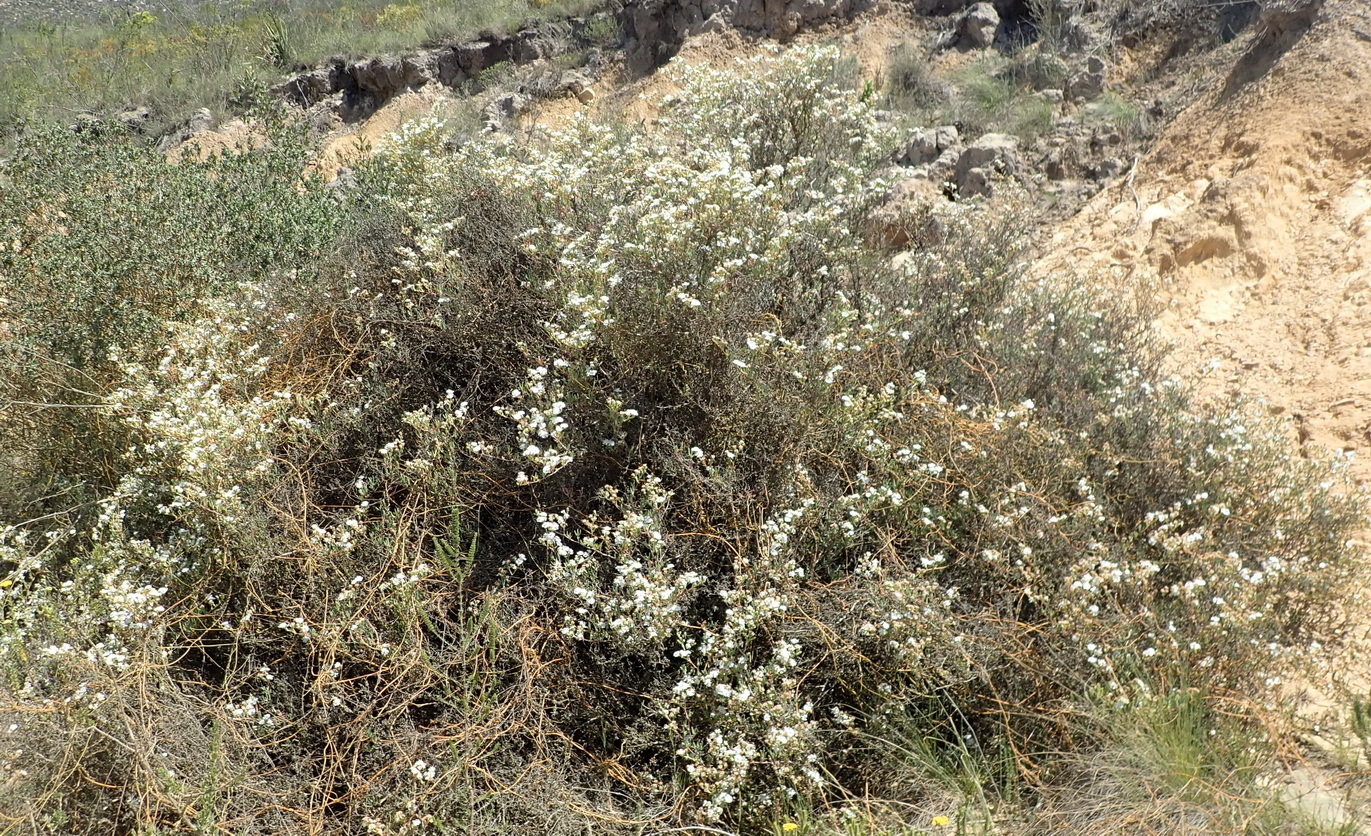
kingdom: Plantae
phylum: Tracheophyta
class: Magnoliopsida
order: Caryophyllales
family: Aizoaceae
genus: Ruschia
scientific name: Ruschia multiflora
